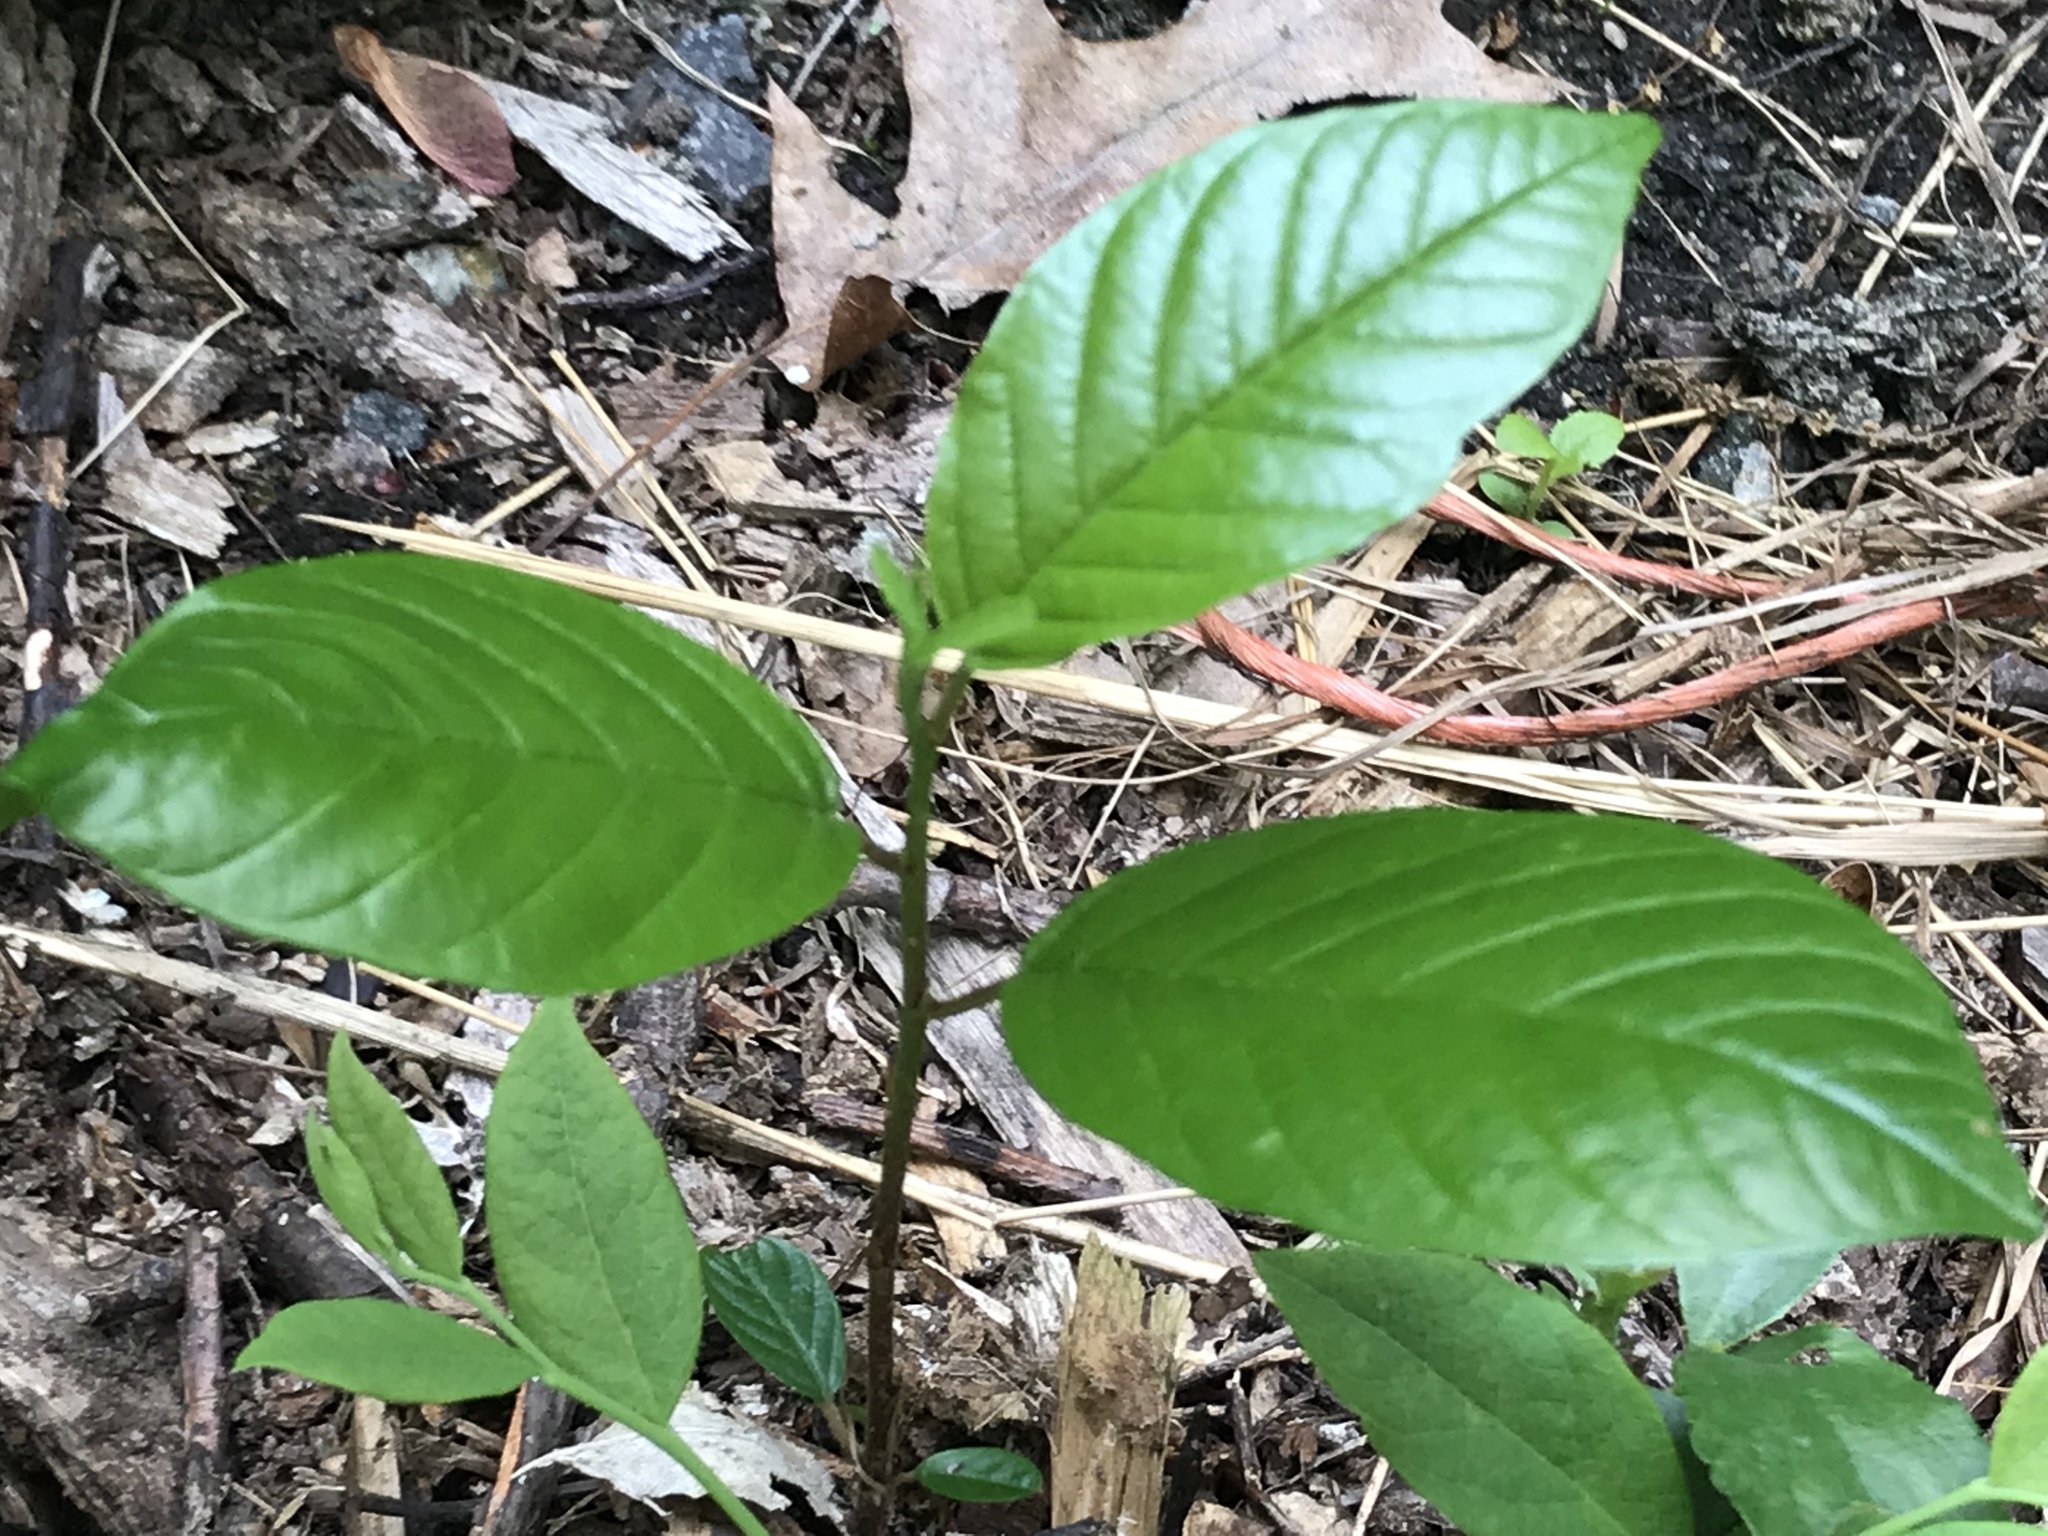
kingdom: Plantae
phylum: Tracheophyta
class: Magnoliopsida
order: Rosales
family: Rhamnaceae
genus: Frangula
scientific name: Frangula alnus
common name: Alder buckthorn
